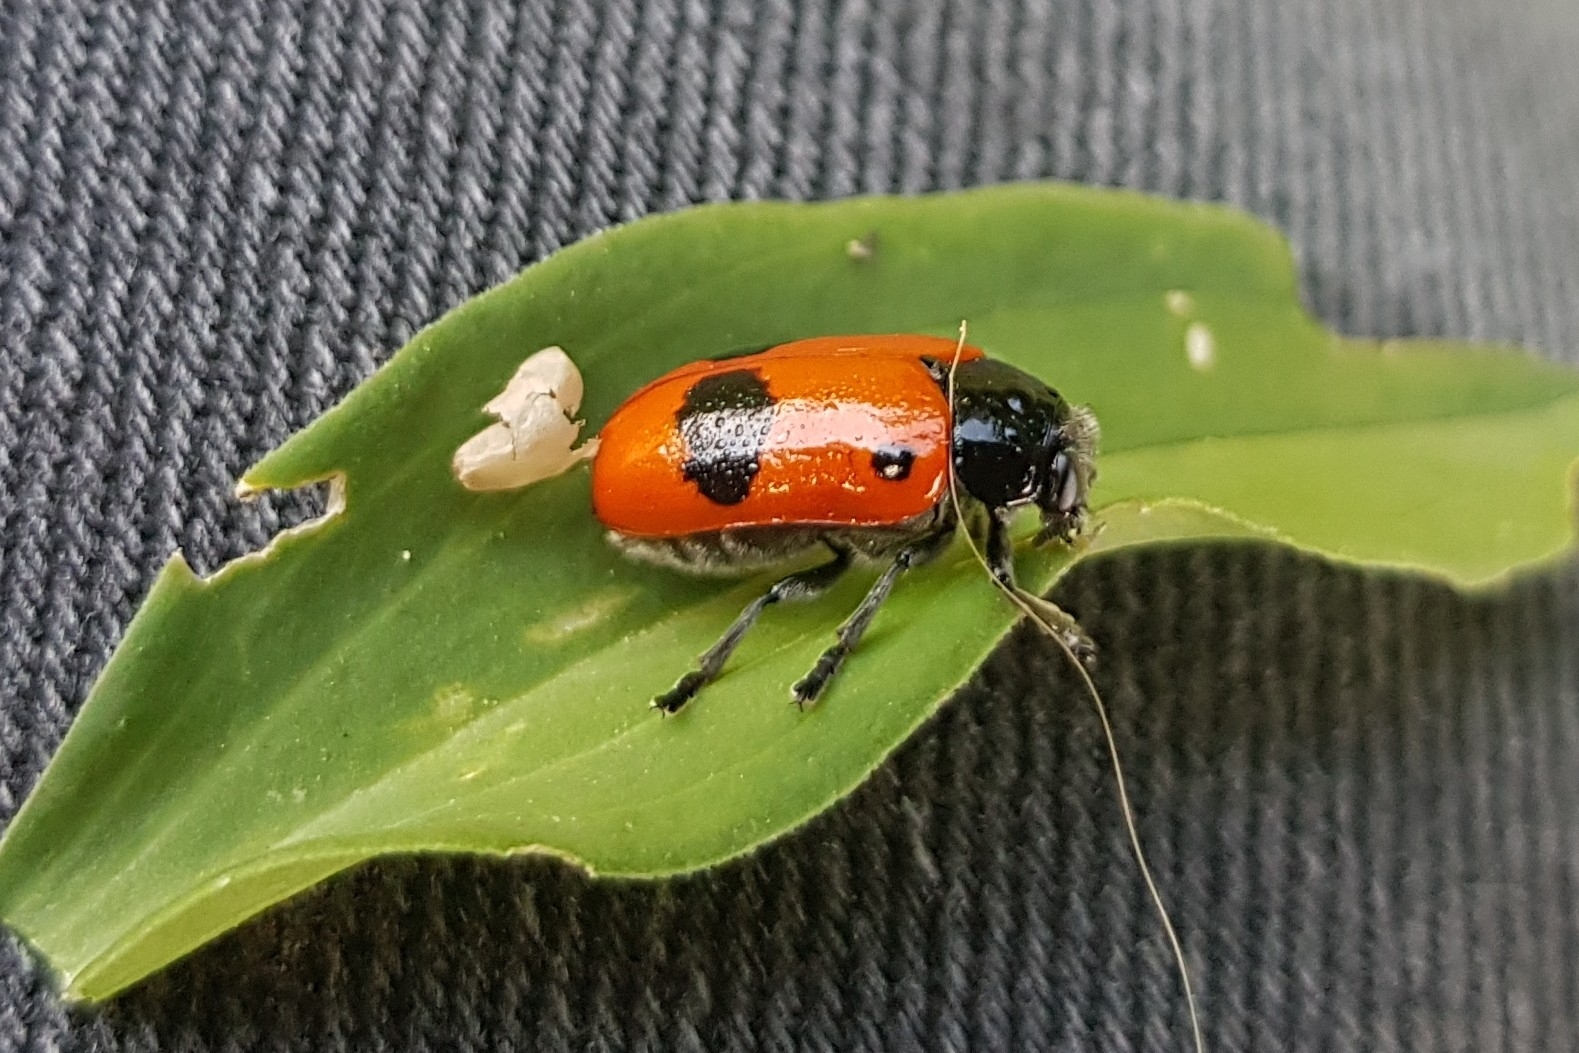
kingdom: Animalia
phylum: Arthropoda
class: Insecta
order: Coleoptera
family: Chrysomelidae
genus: Clytra
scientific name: Clytra laeviuscula
